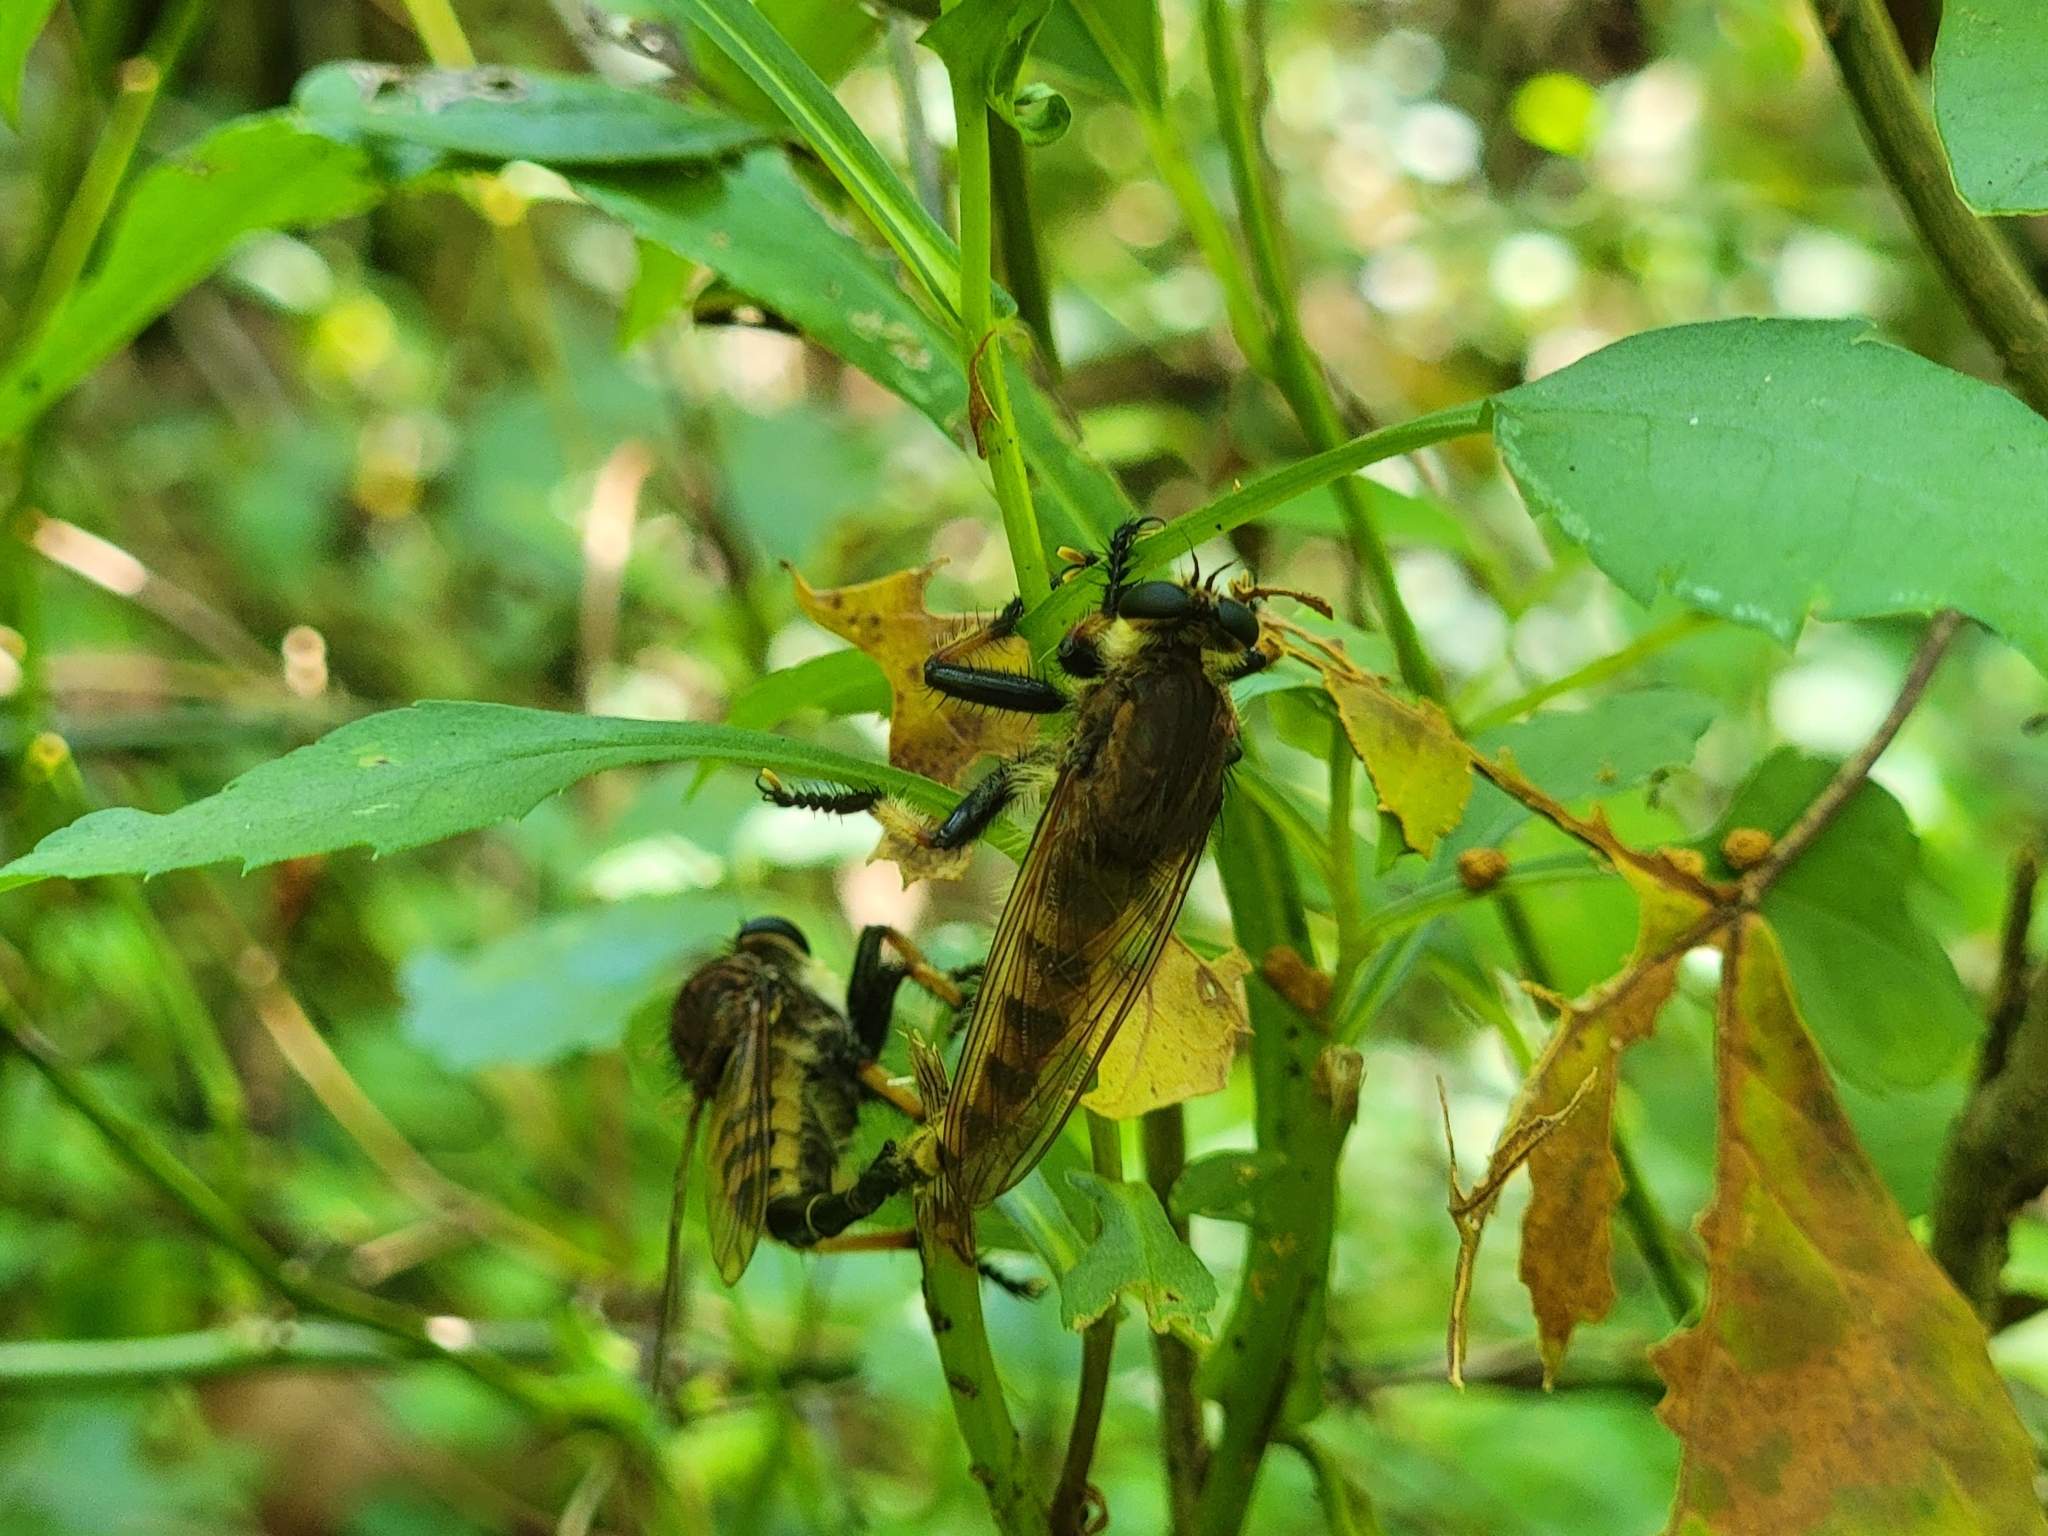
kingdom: Animalia
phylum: Arthropoda
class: Insecta
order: Diptera
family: Asilidae
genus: Promachus
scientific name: Promachus rufipes
